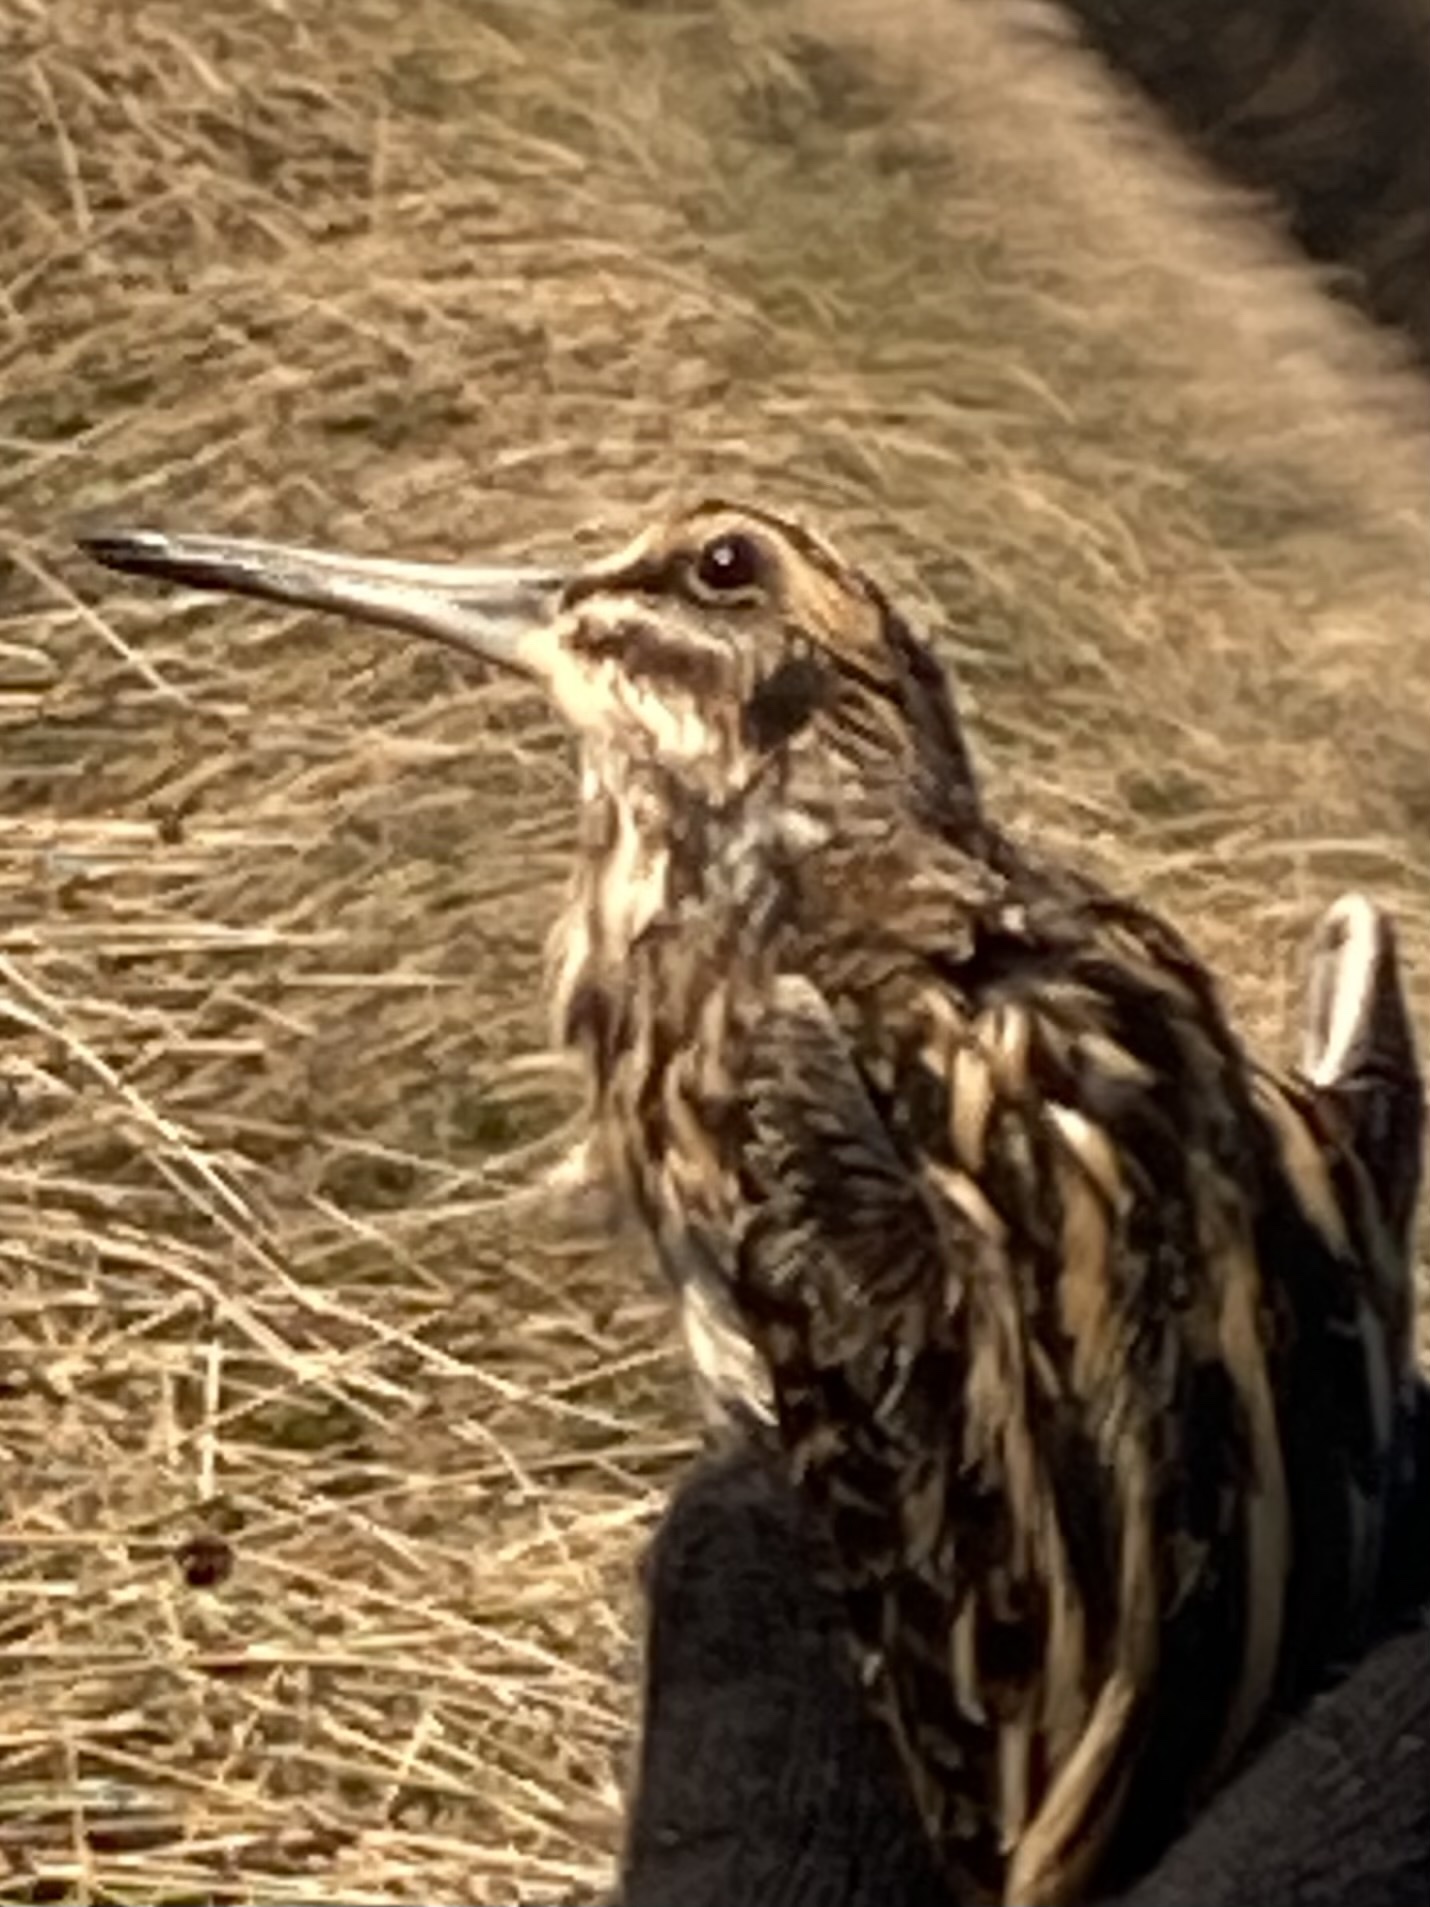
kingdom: Animalia
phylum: Chordata
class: Aves
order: Charadriiformes
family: Scolopacidae
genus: Lymnocryptes
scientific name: Lymnocryptes minimus
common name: Jack snipe
